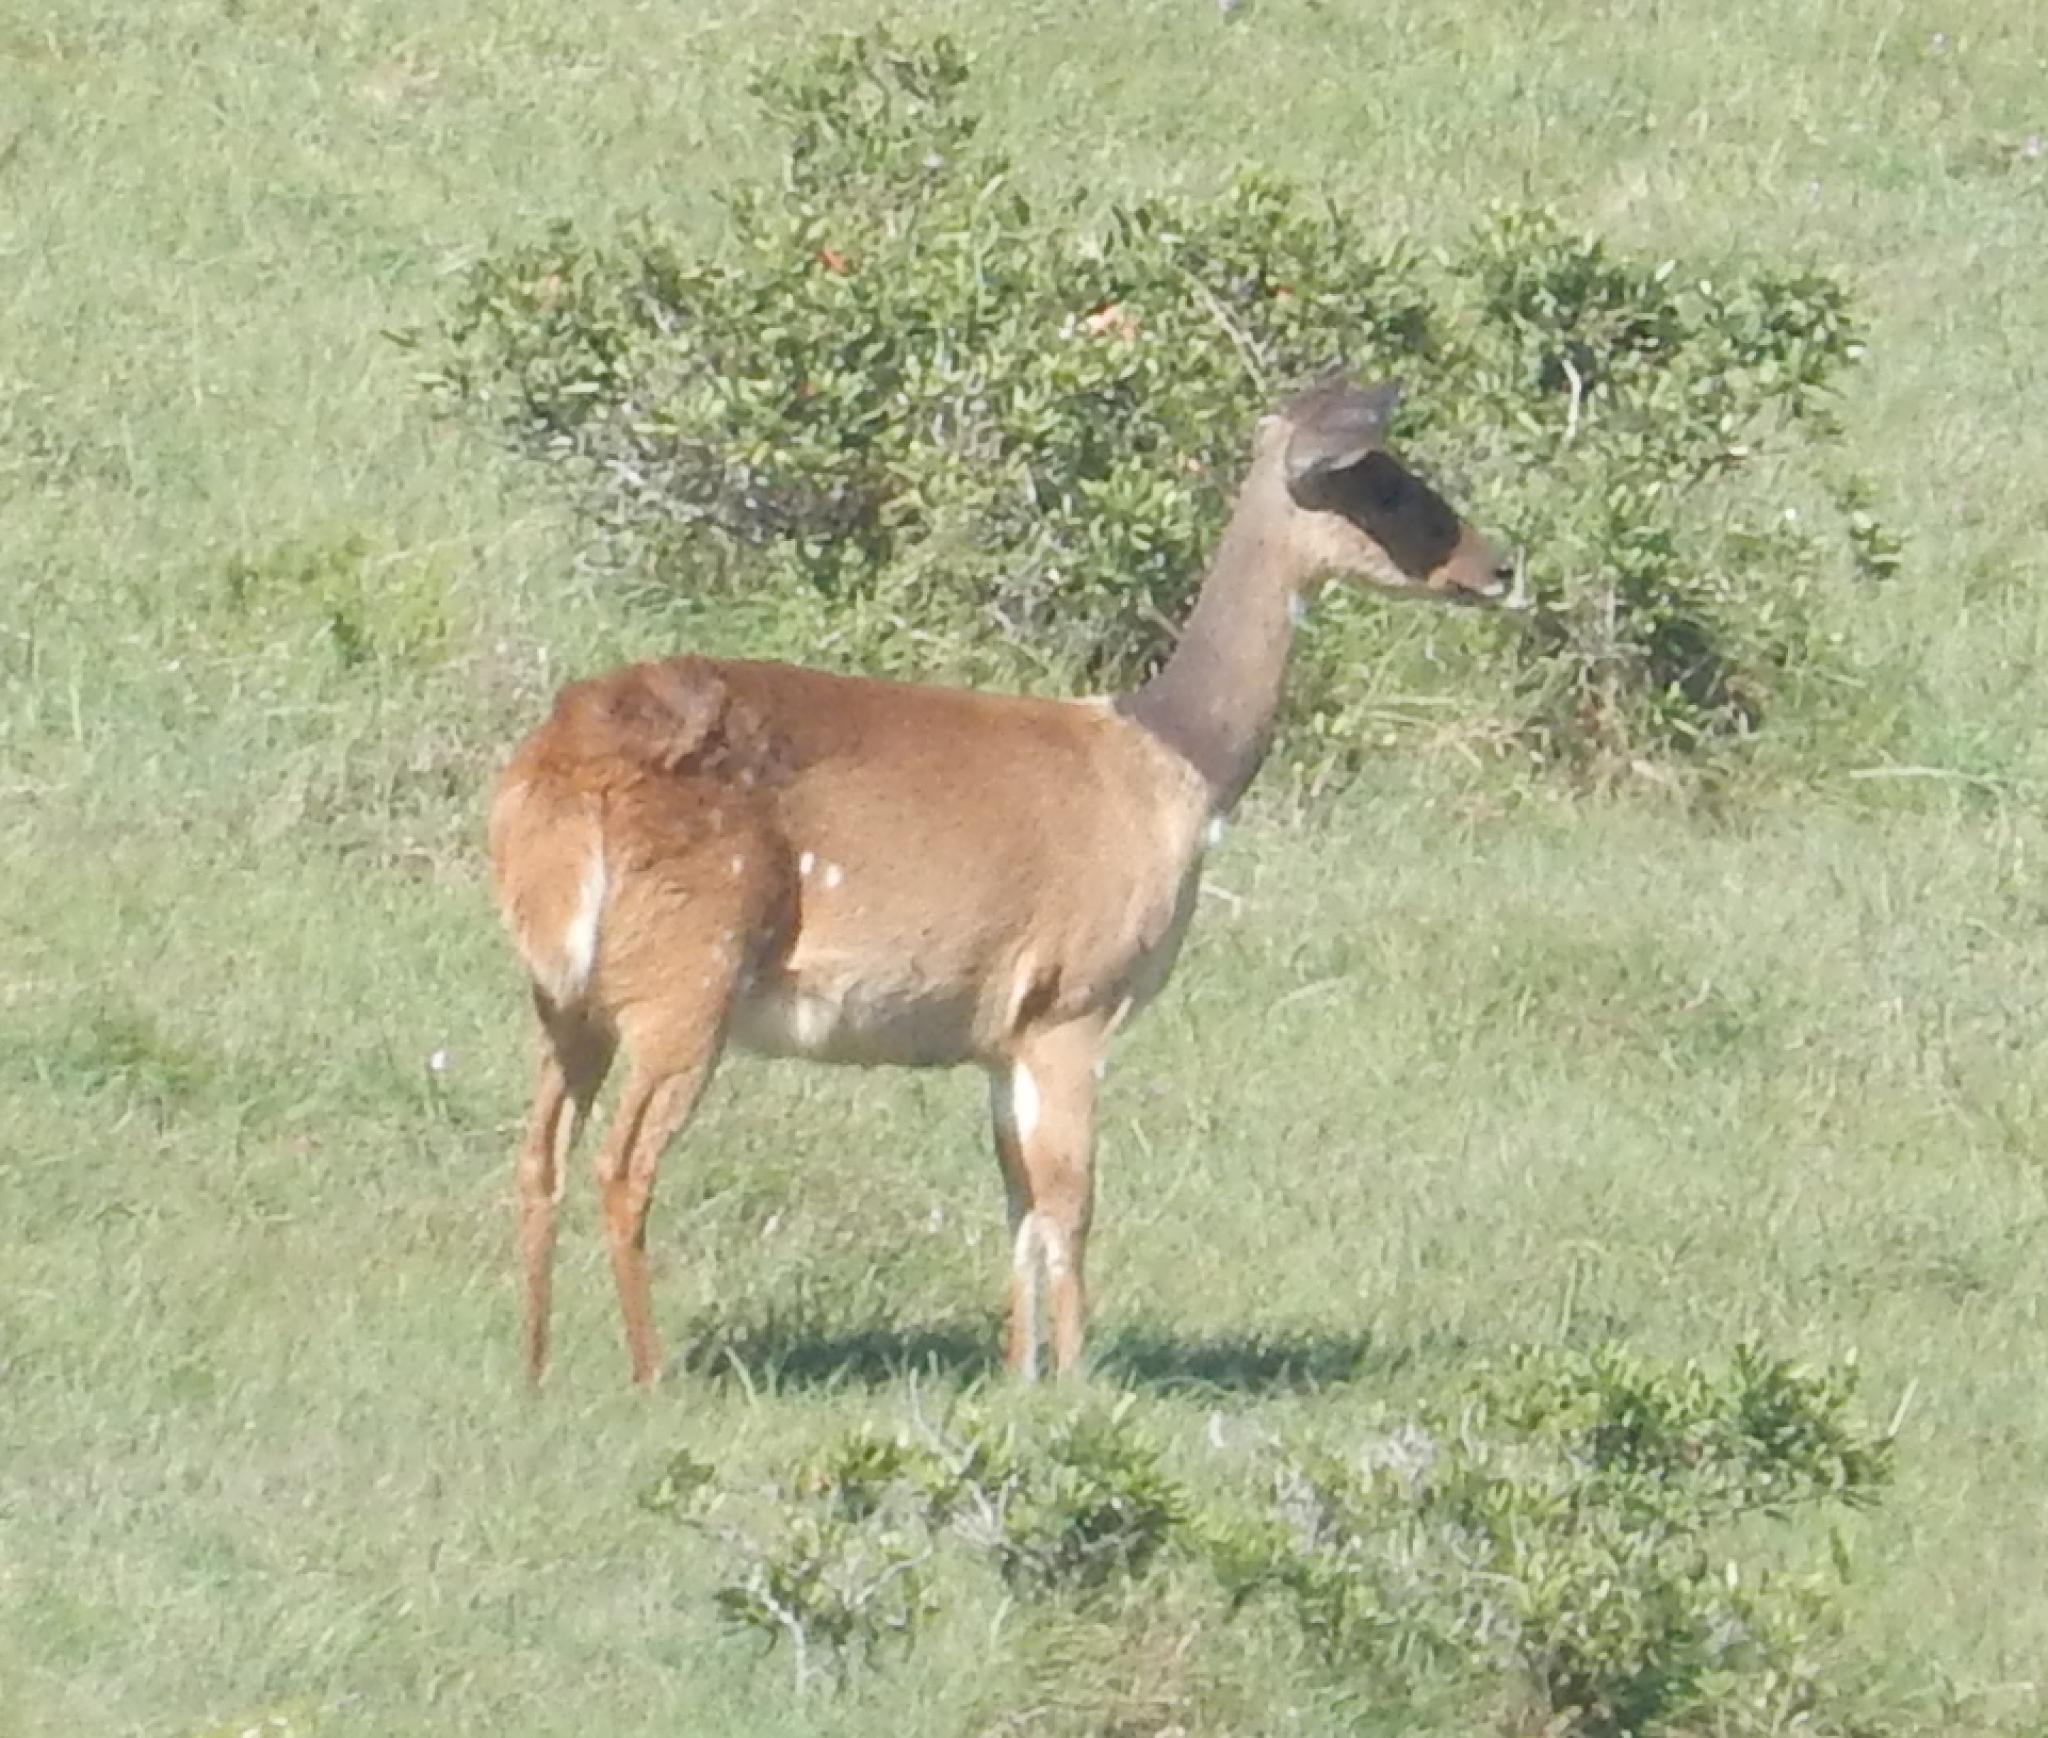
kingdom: Animalia
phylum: Chordata
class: Mammalia
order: Artiodactyla
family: Bovidae
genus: Tragelaphus
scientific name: Tragelaphus scriptus
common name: Bushbuck
